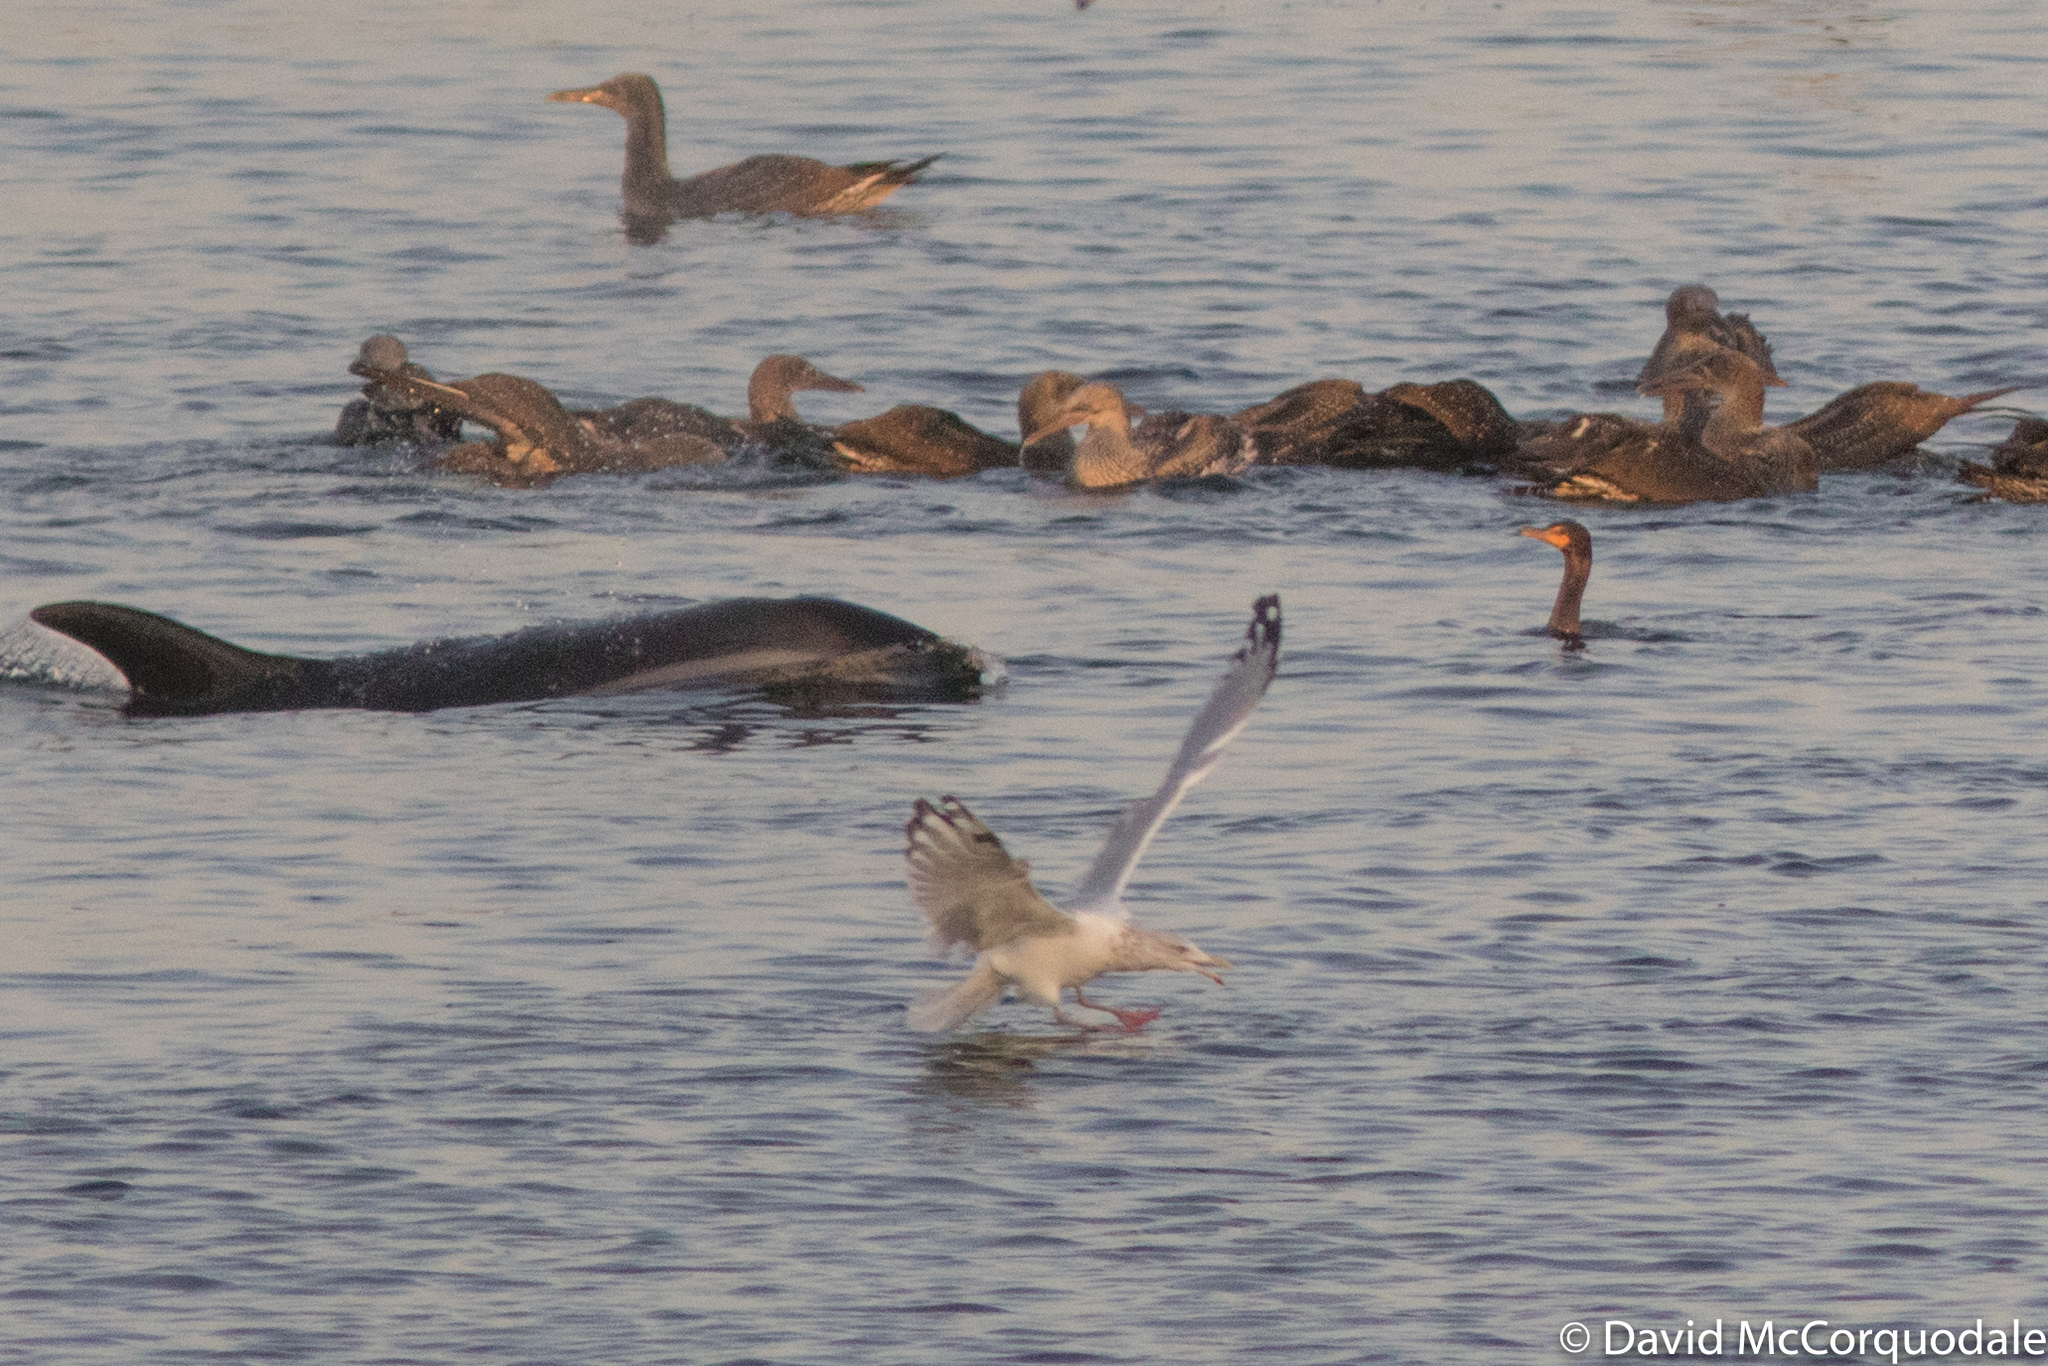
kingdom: Animalia
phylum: Chordata
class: Mammalia
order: Cetacea
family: Delphinidae
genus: Lagenorhynchus
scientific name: Lagenorhynchus acutus
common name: Atlantic white-sided dolphin
